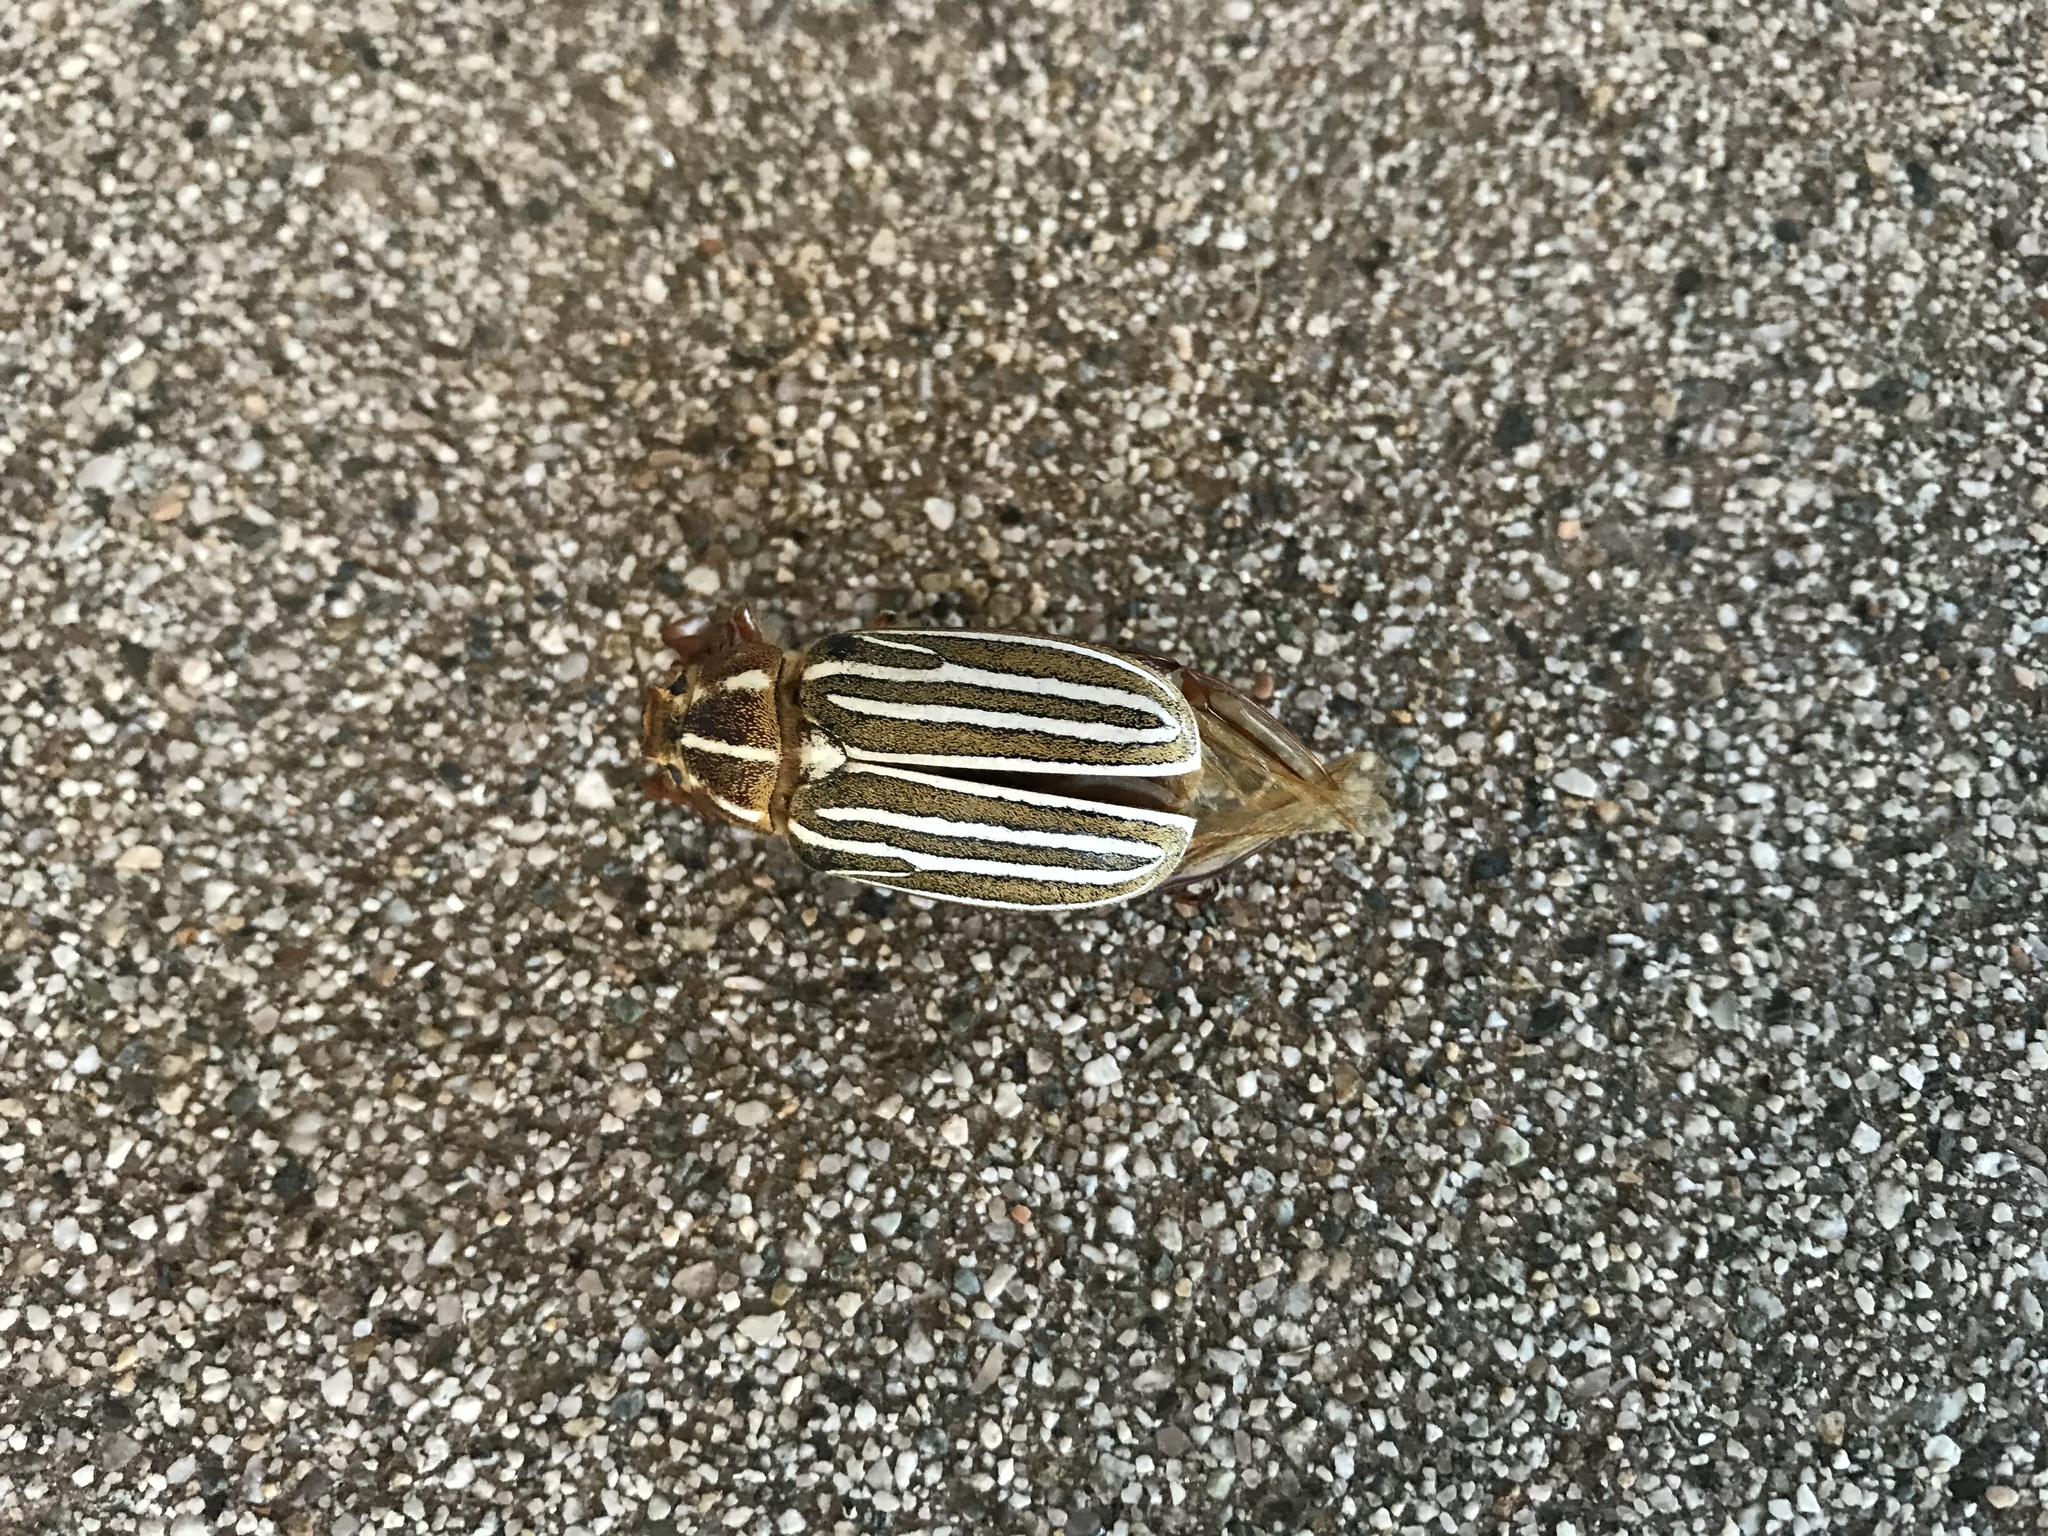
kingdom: Animalia
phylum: Arthropoda
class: Insecta
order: Coleoptera
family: Scarabaeidae
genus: Polyphylla
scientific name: Polyphylla decemlineata
